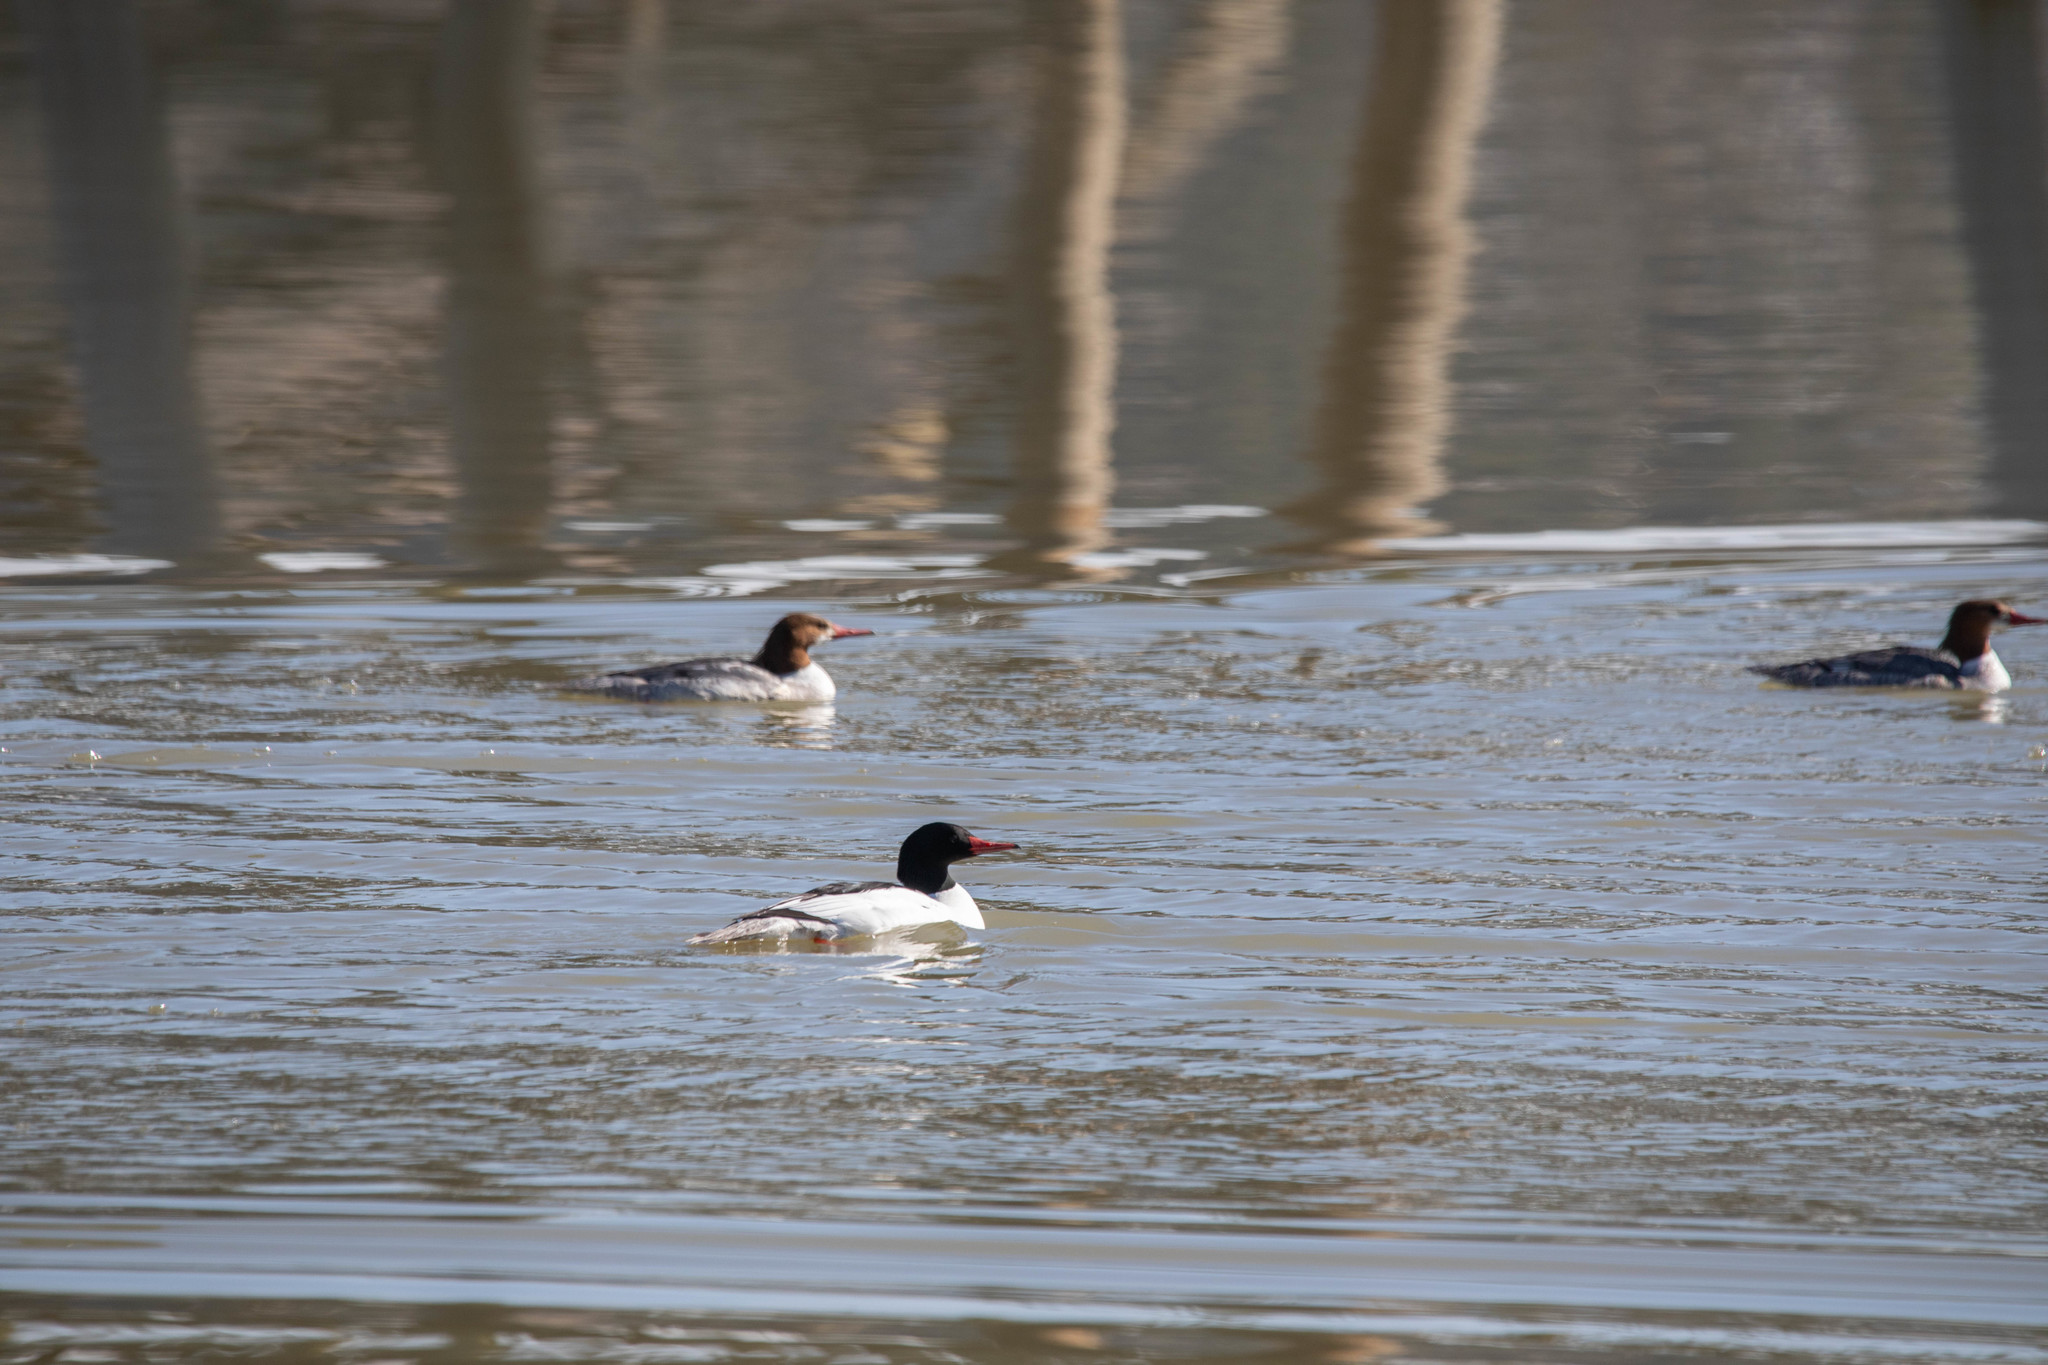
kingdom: Animalia
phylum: Chordata
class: Aves
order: Anseriformes
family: Anatidae
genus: Mergus
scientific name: Mergus merganser
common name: Common merganser
